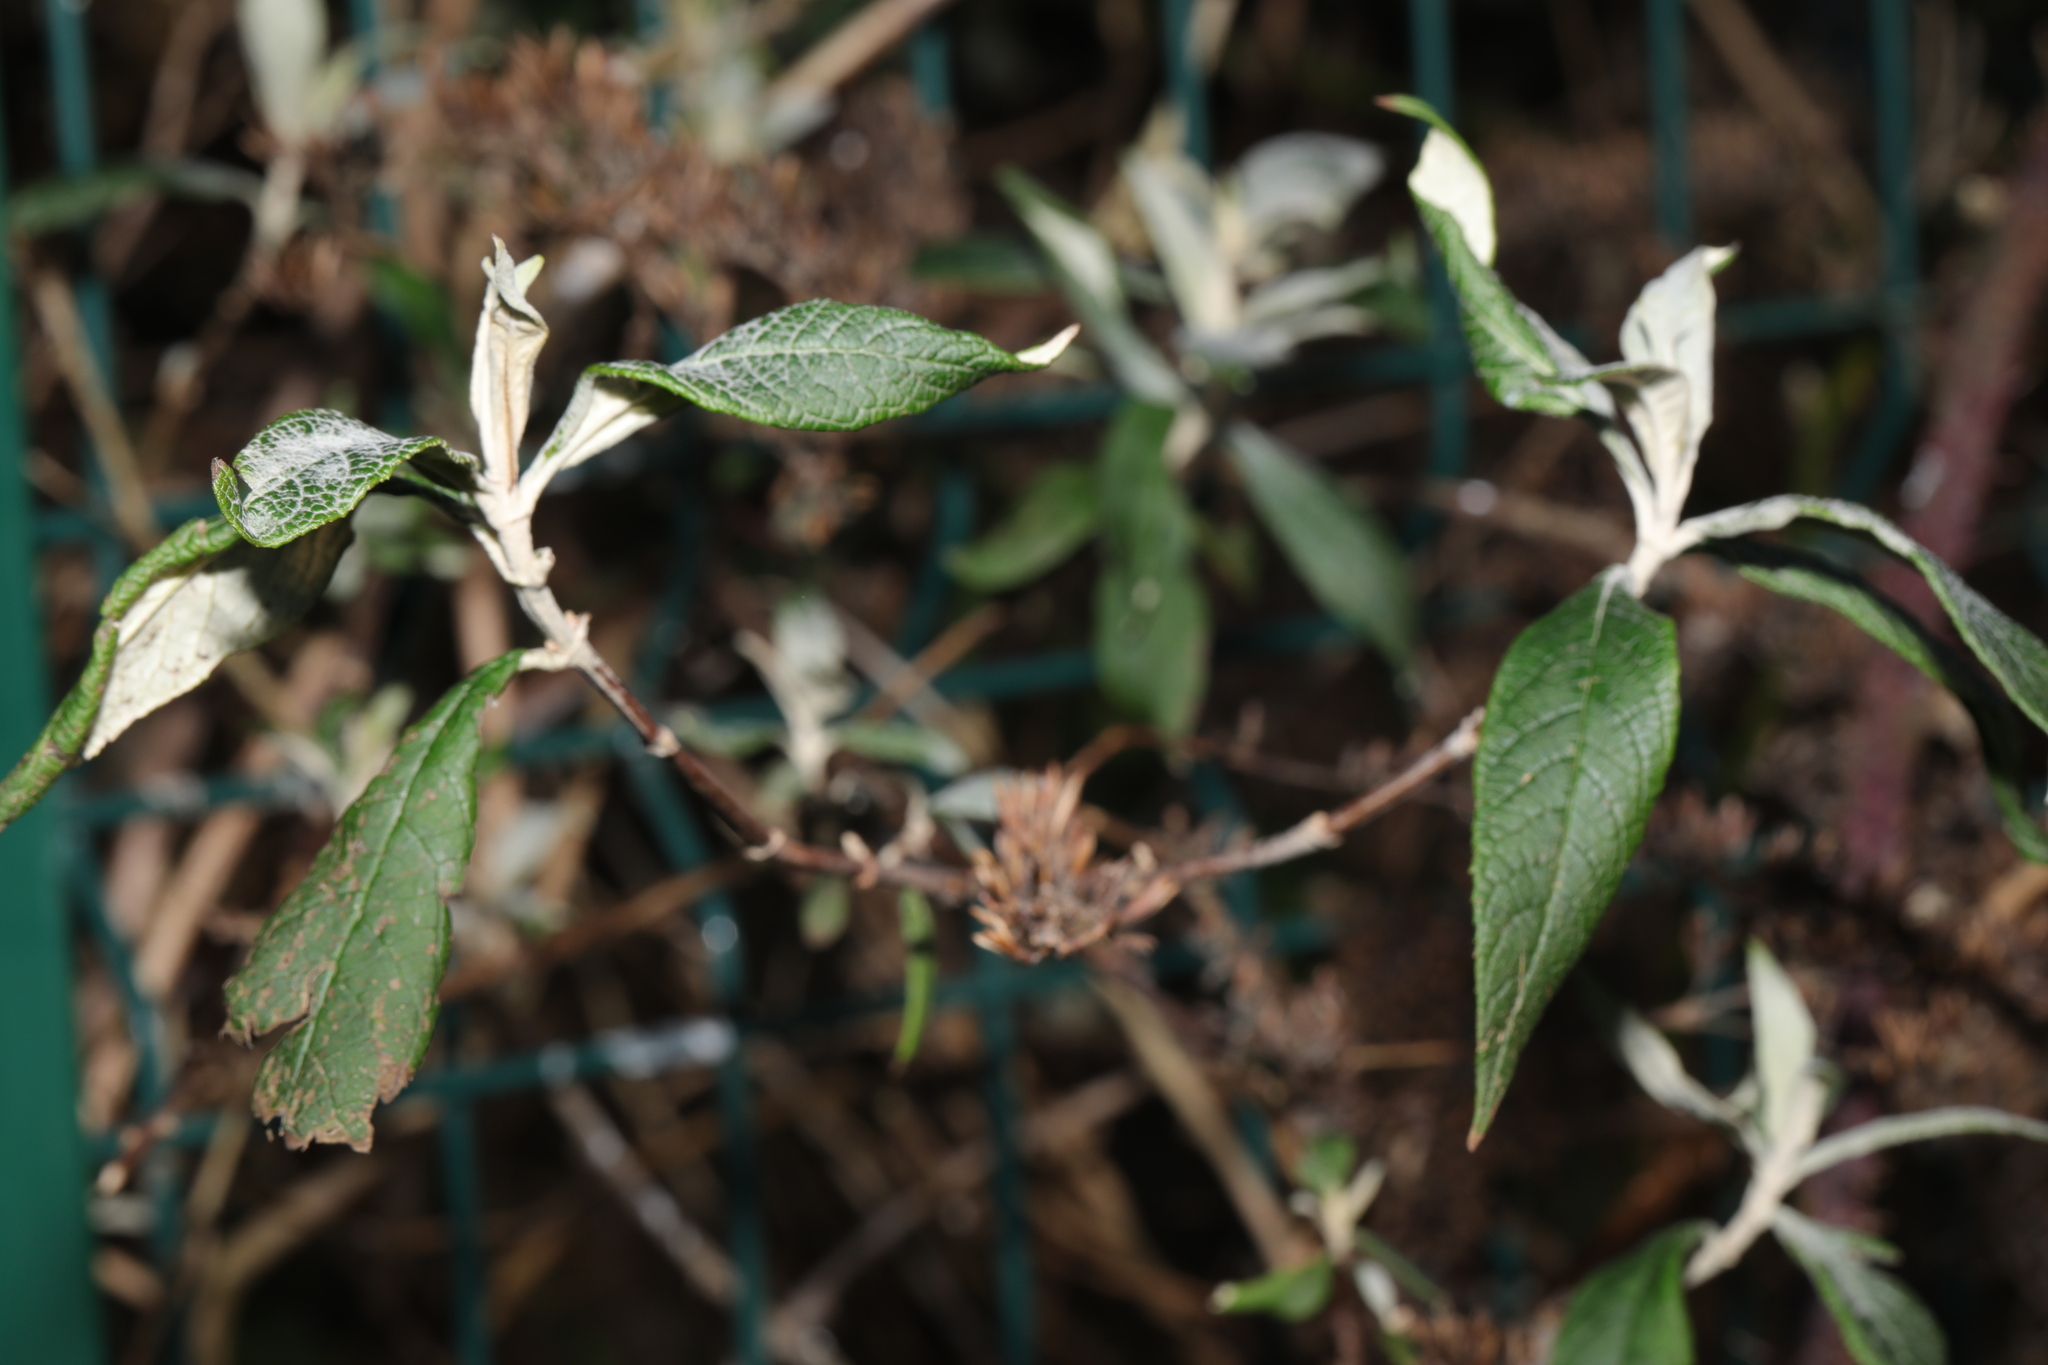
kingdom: Plantae
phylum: Tracheophyta
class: Magnoliopsida
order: Lamiales
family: Scrophulariaceae
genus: Buddleja
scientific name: Buddleja davidii
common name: Butterfly-bush
